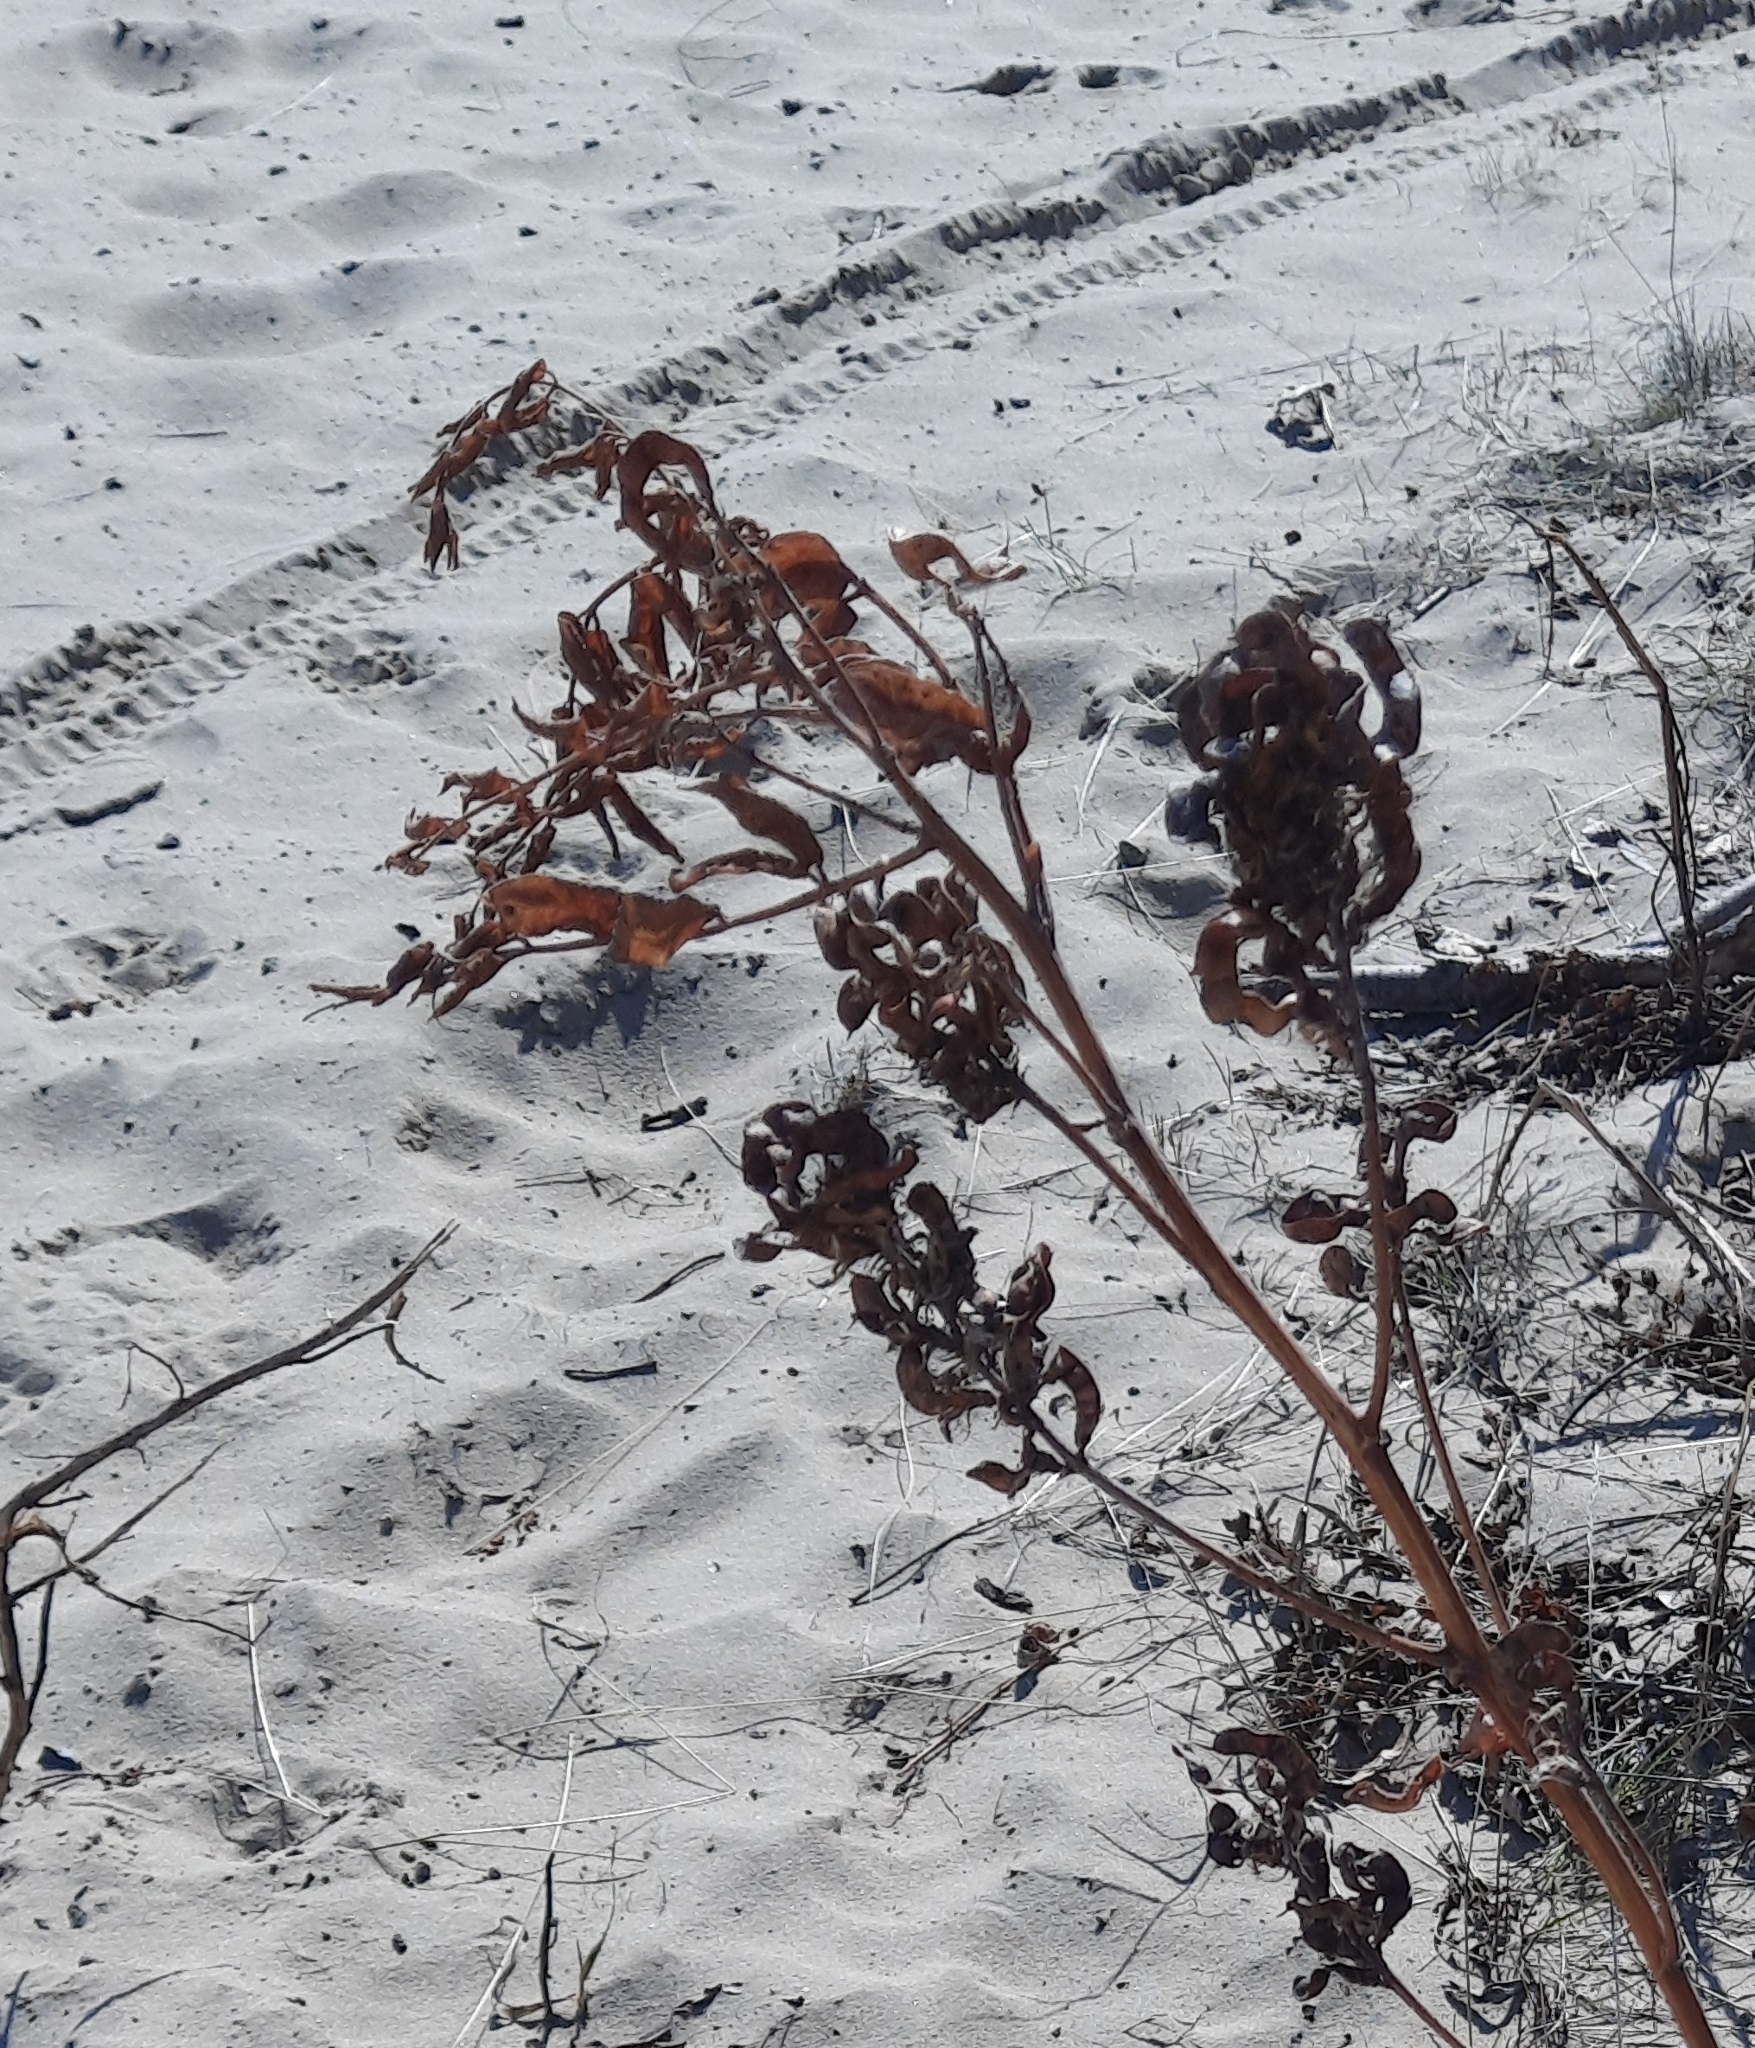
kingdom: Plantae
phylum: Tracheophyta
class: Magnoliopsida
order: Fabales
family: Fabaceae
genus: Glycyrrhiza
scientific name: Glycyrrhiza uralensis
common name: Chinese licorice
